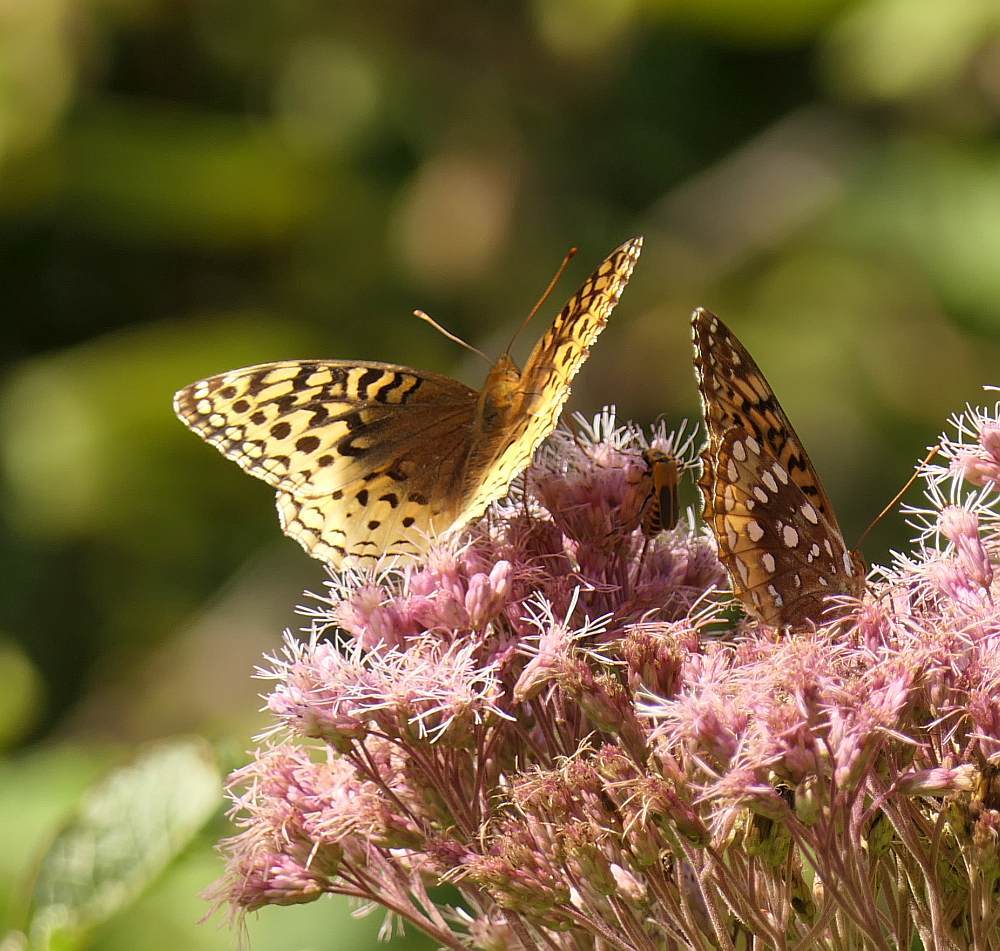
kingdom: Animalia
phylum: Arthropoda
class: Insecta
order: Lepidoptera
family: Nymphalidae
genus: Speyeria
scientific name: Speyeria cybele
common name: Great spangled fritillary
